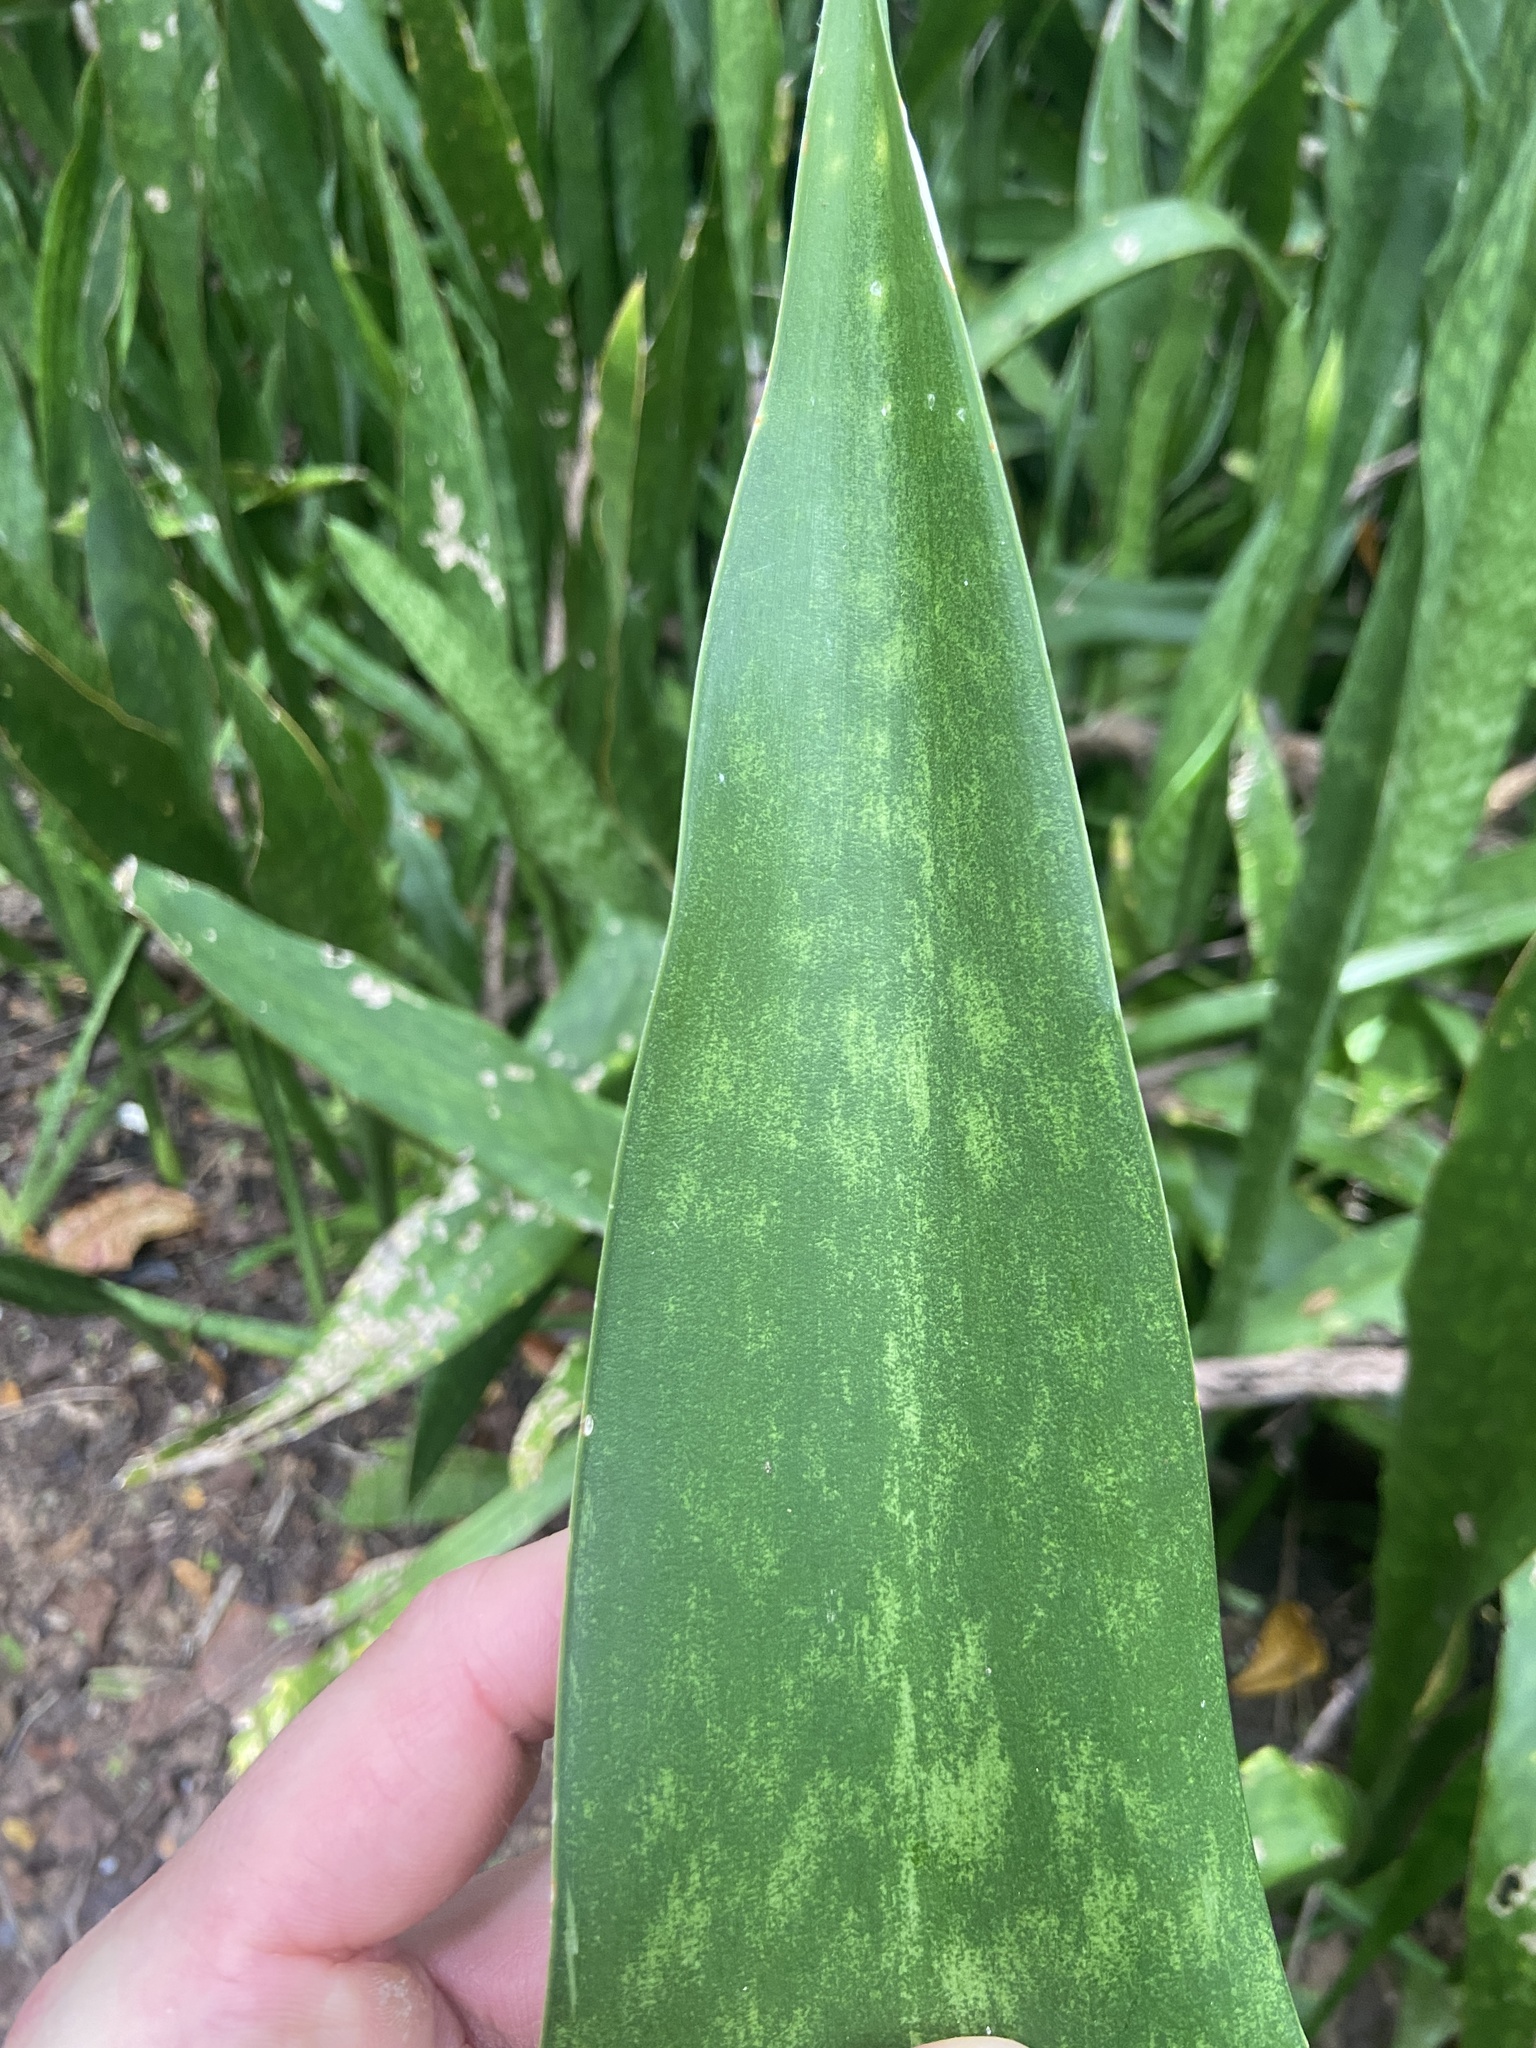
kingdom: Plantae
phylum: Tracheophyta
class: Liliopsida
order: Asparagales
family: Asparagaceae
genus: Dracaena
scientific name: Dracaena hyacinthoides
